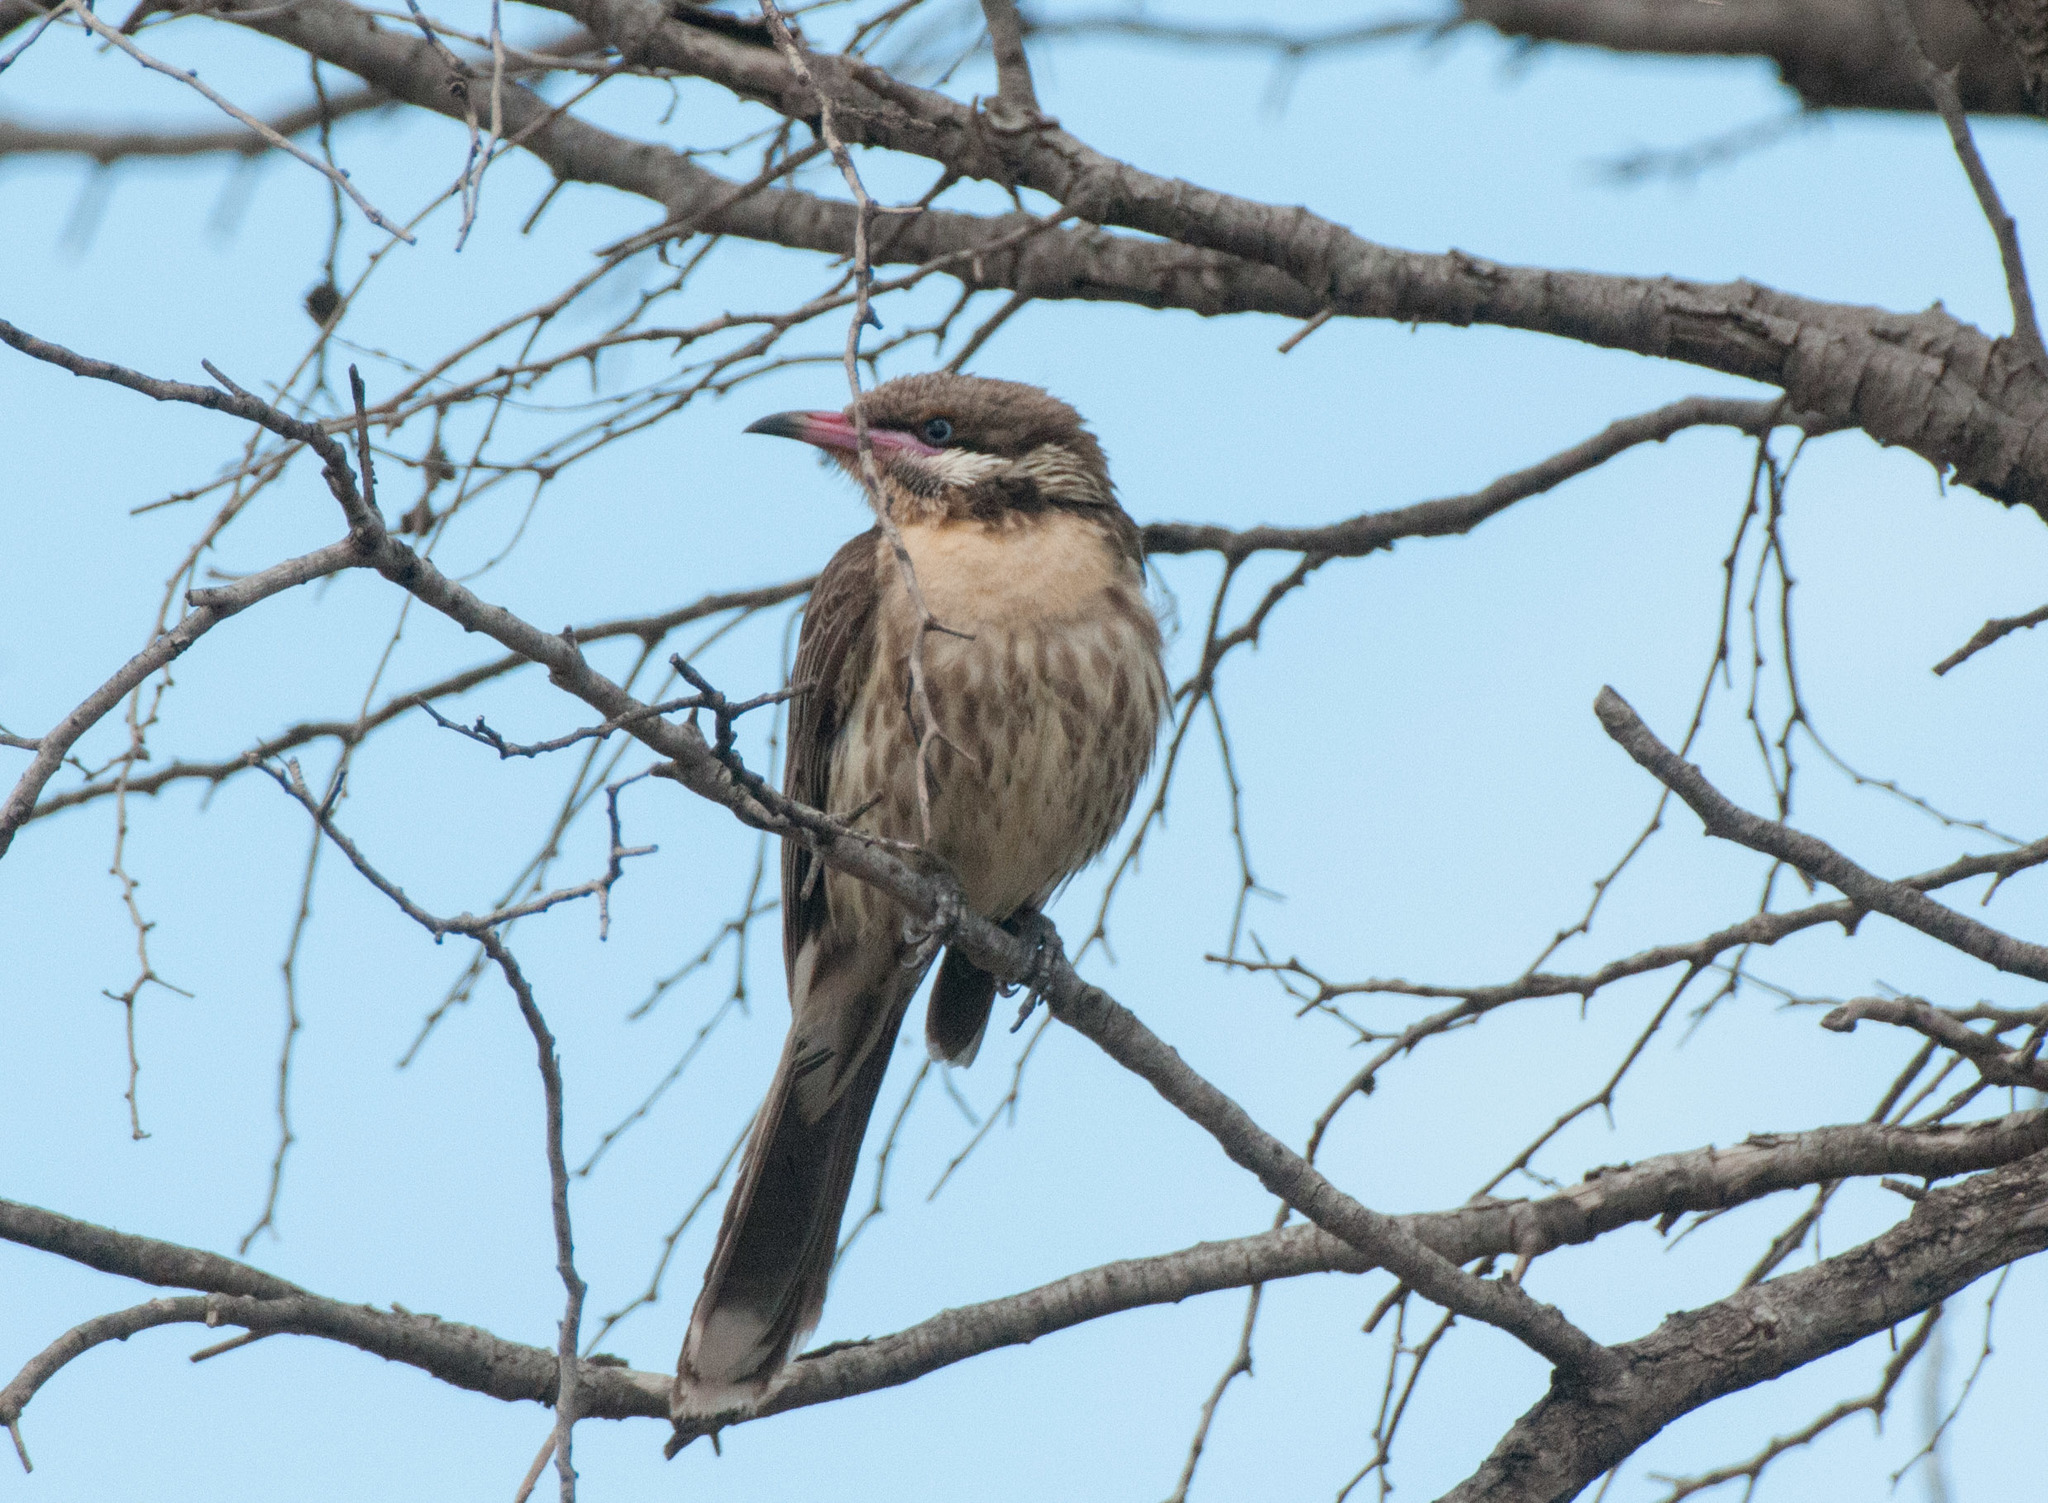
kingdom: Animalia
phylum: Chordata
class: Aves
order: Passeriformes
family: Meliphagidae
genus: Acanthagenys
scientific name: Acanthagenys rufogularis
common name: Spiny-cheeked honeyeater
